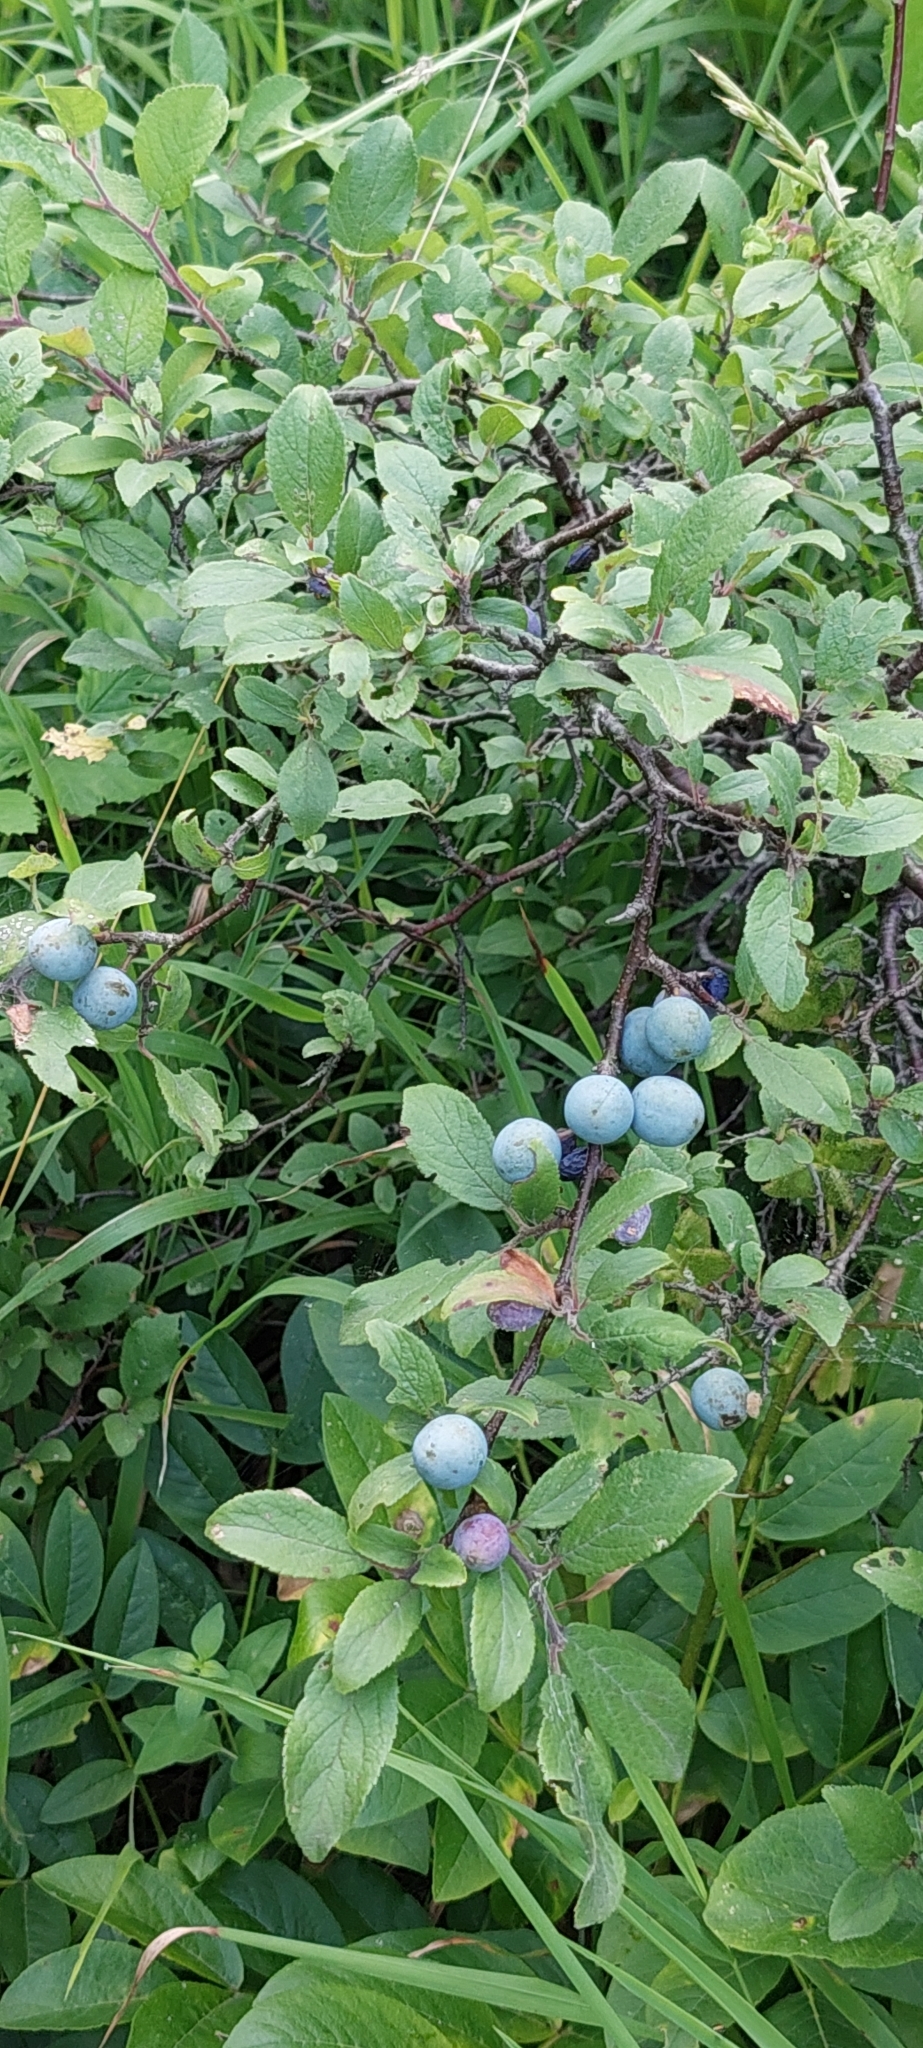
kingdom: Plantae
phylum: Tracheophyta
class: Magnoliopsida
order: Rosales
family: Rosaceae
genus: Prunus
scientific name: Prunus spinosa
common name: Blackthorn
